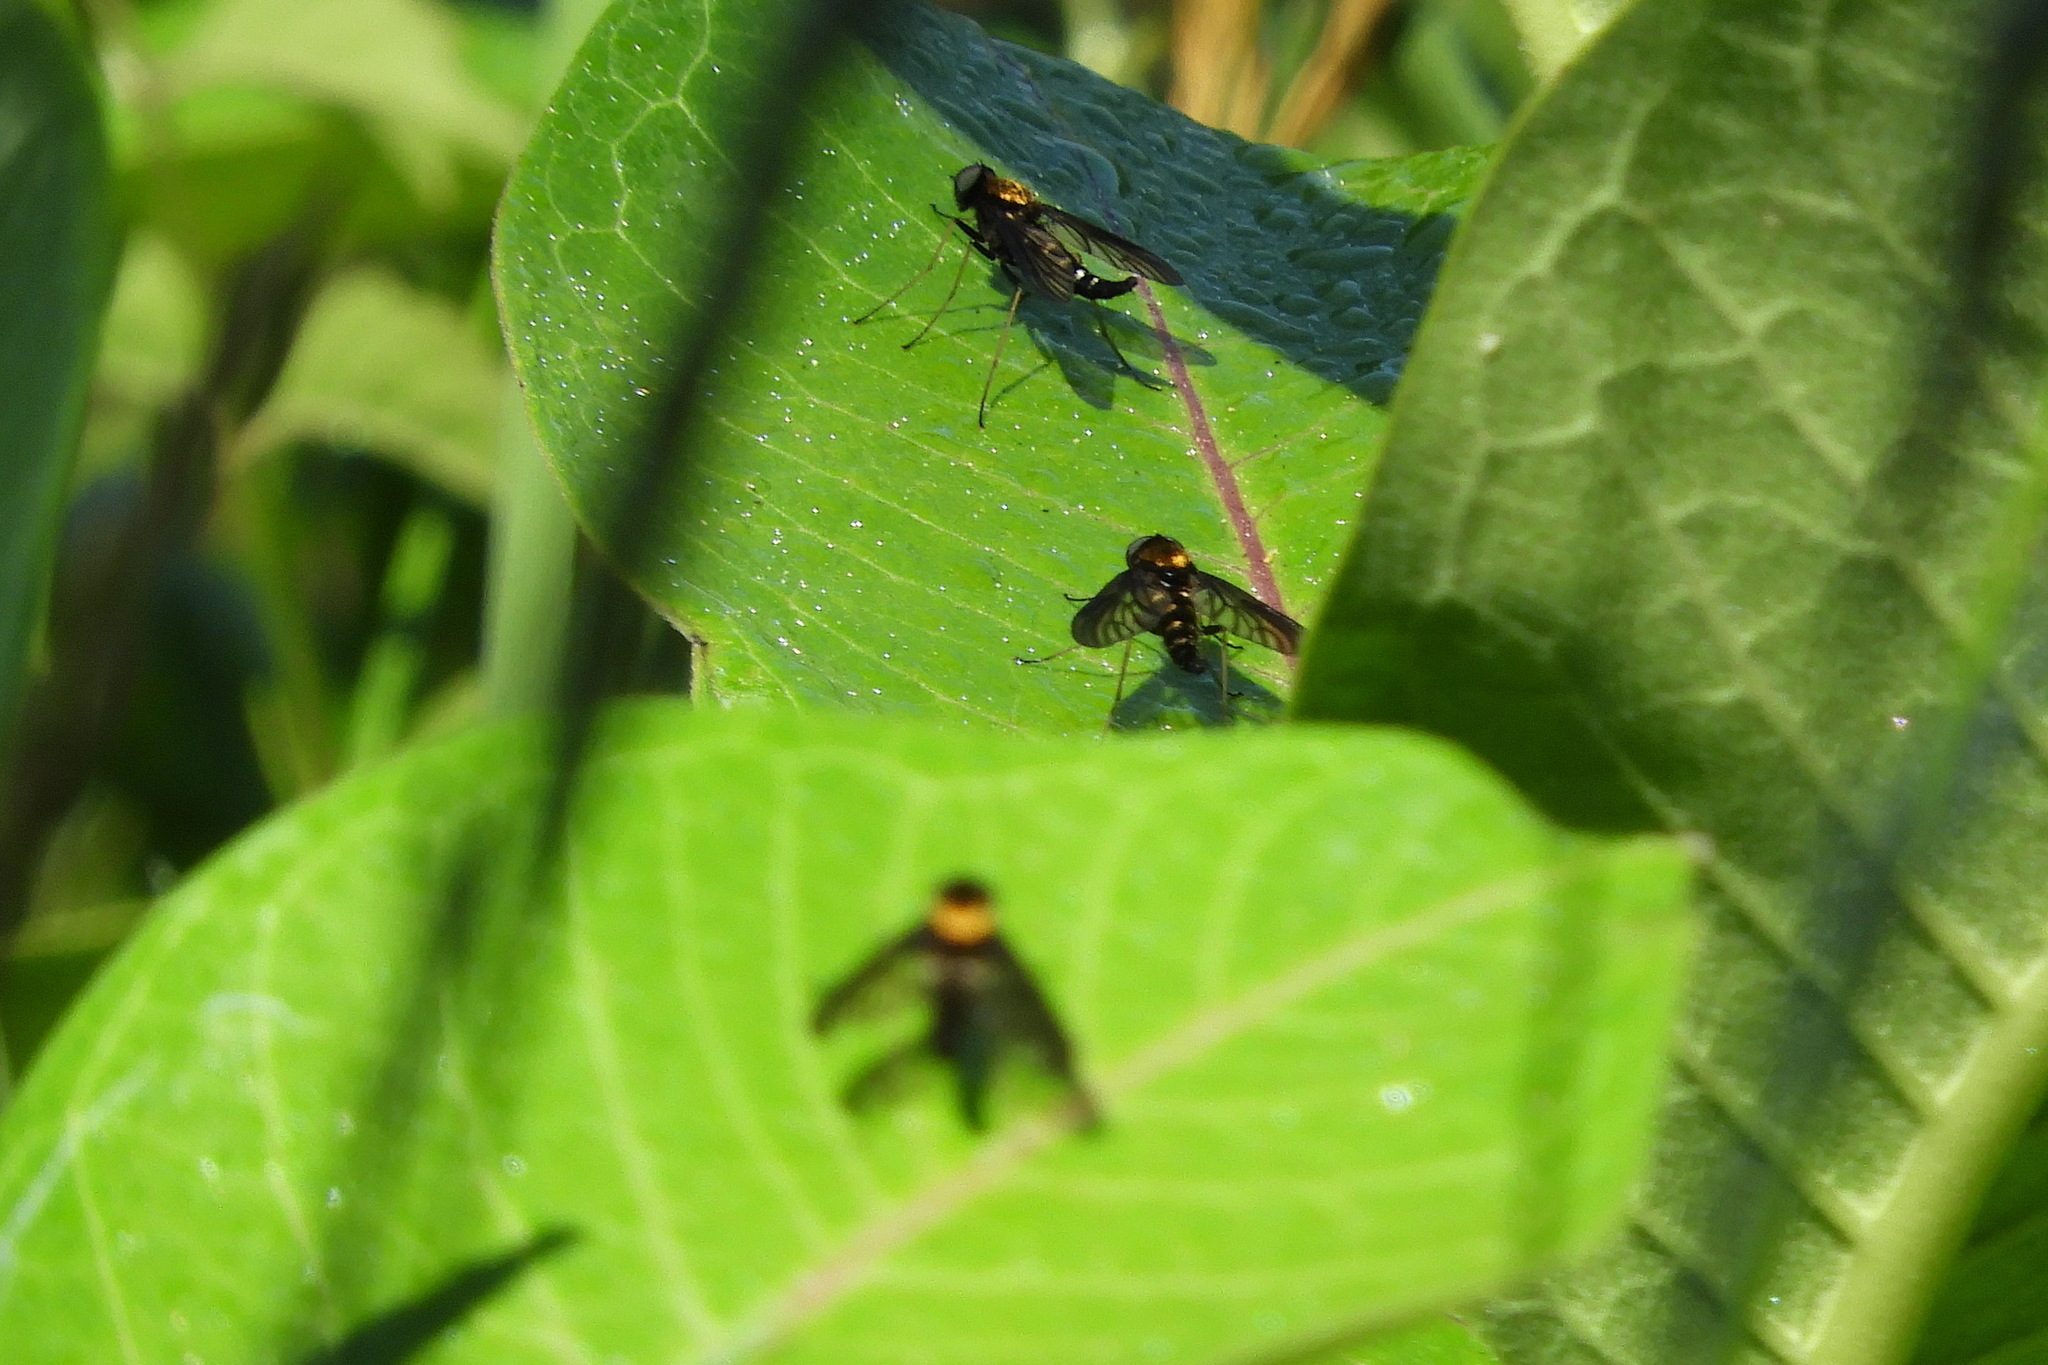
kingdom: Animalia
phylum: Arthropoda
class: Insecta
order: Diptera
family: Rhagionidae
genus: Chrysopilus
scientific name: Chrysopilus thoracicus
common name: Golden-backed snipe fly
